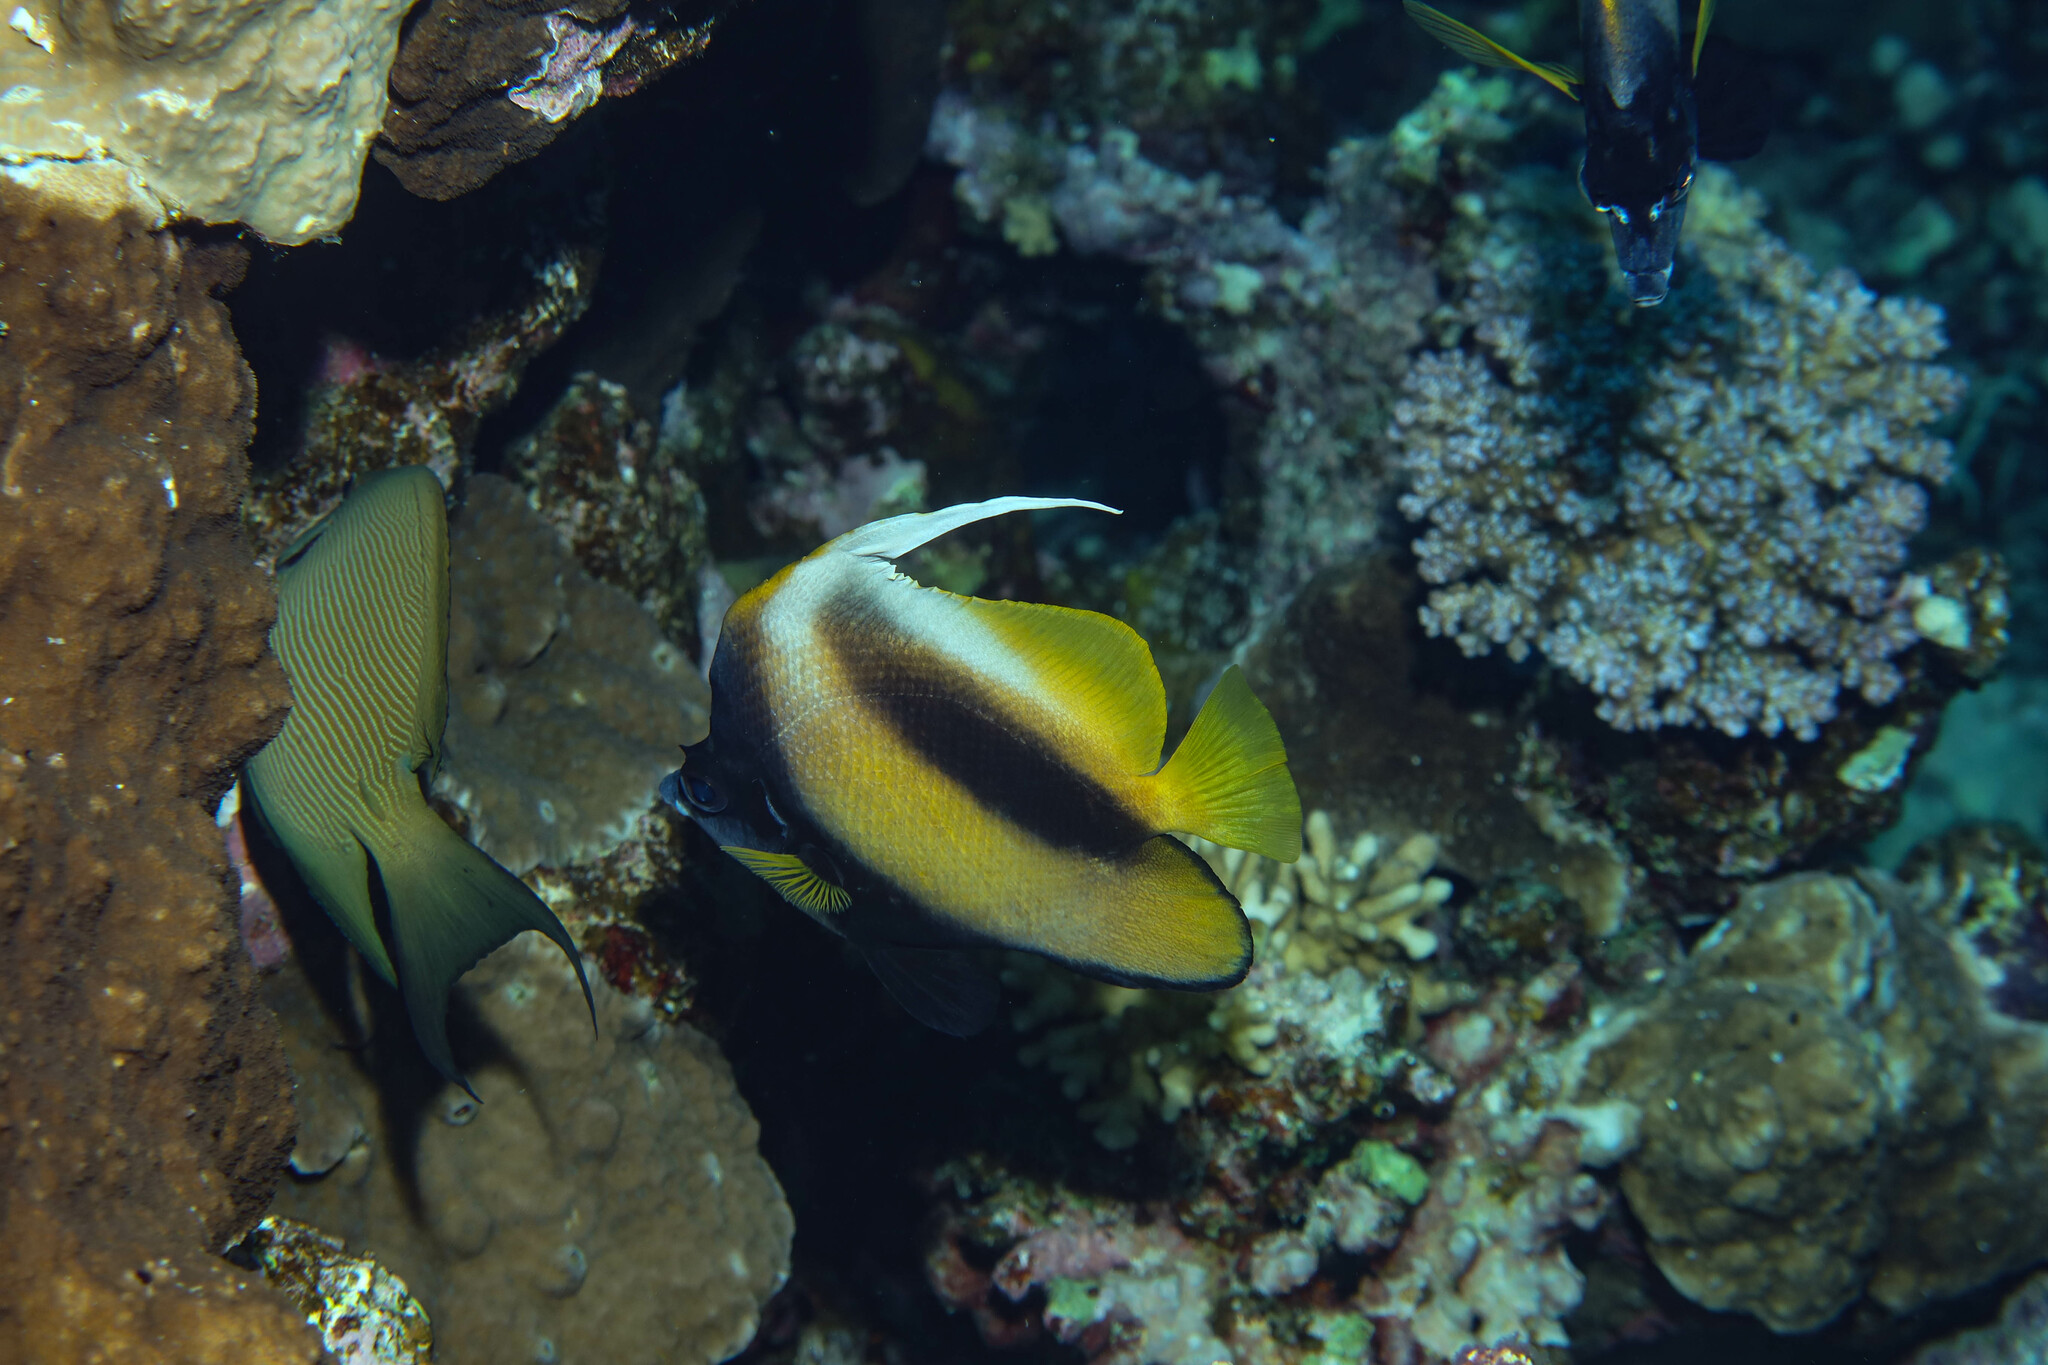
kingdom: Animalia
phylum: Chordata
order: Perciformes
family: Chaetodontidae
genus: Heniochus
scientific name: Heniochus intermedius
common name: Red sea bannerfish
